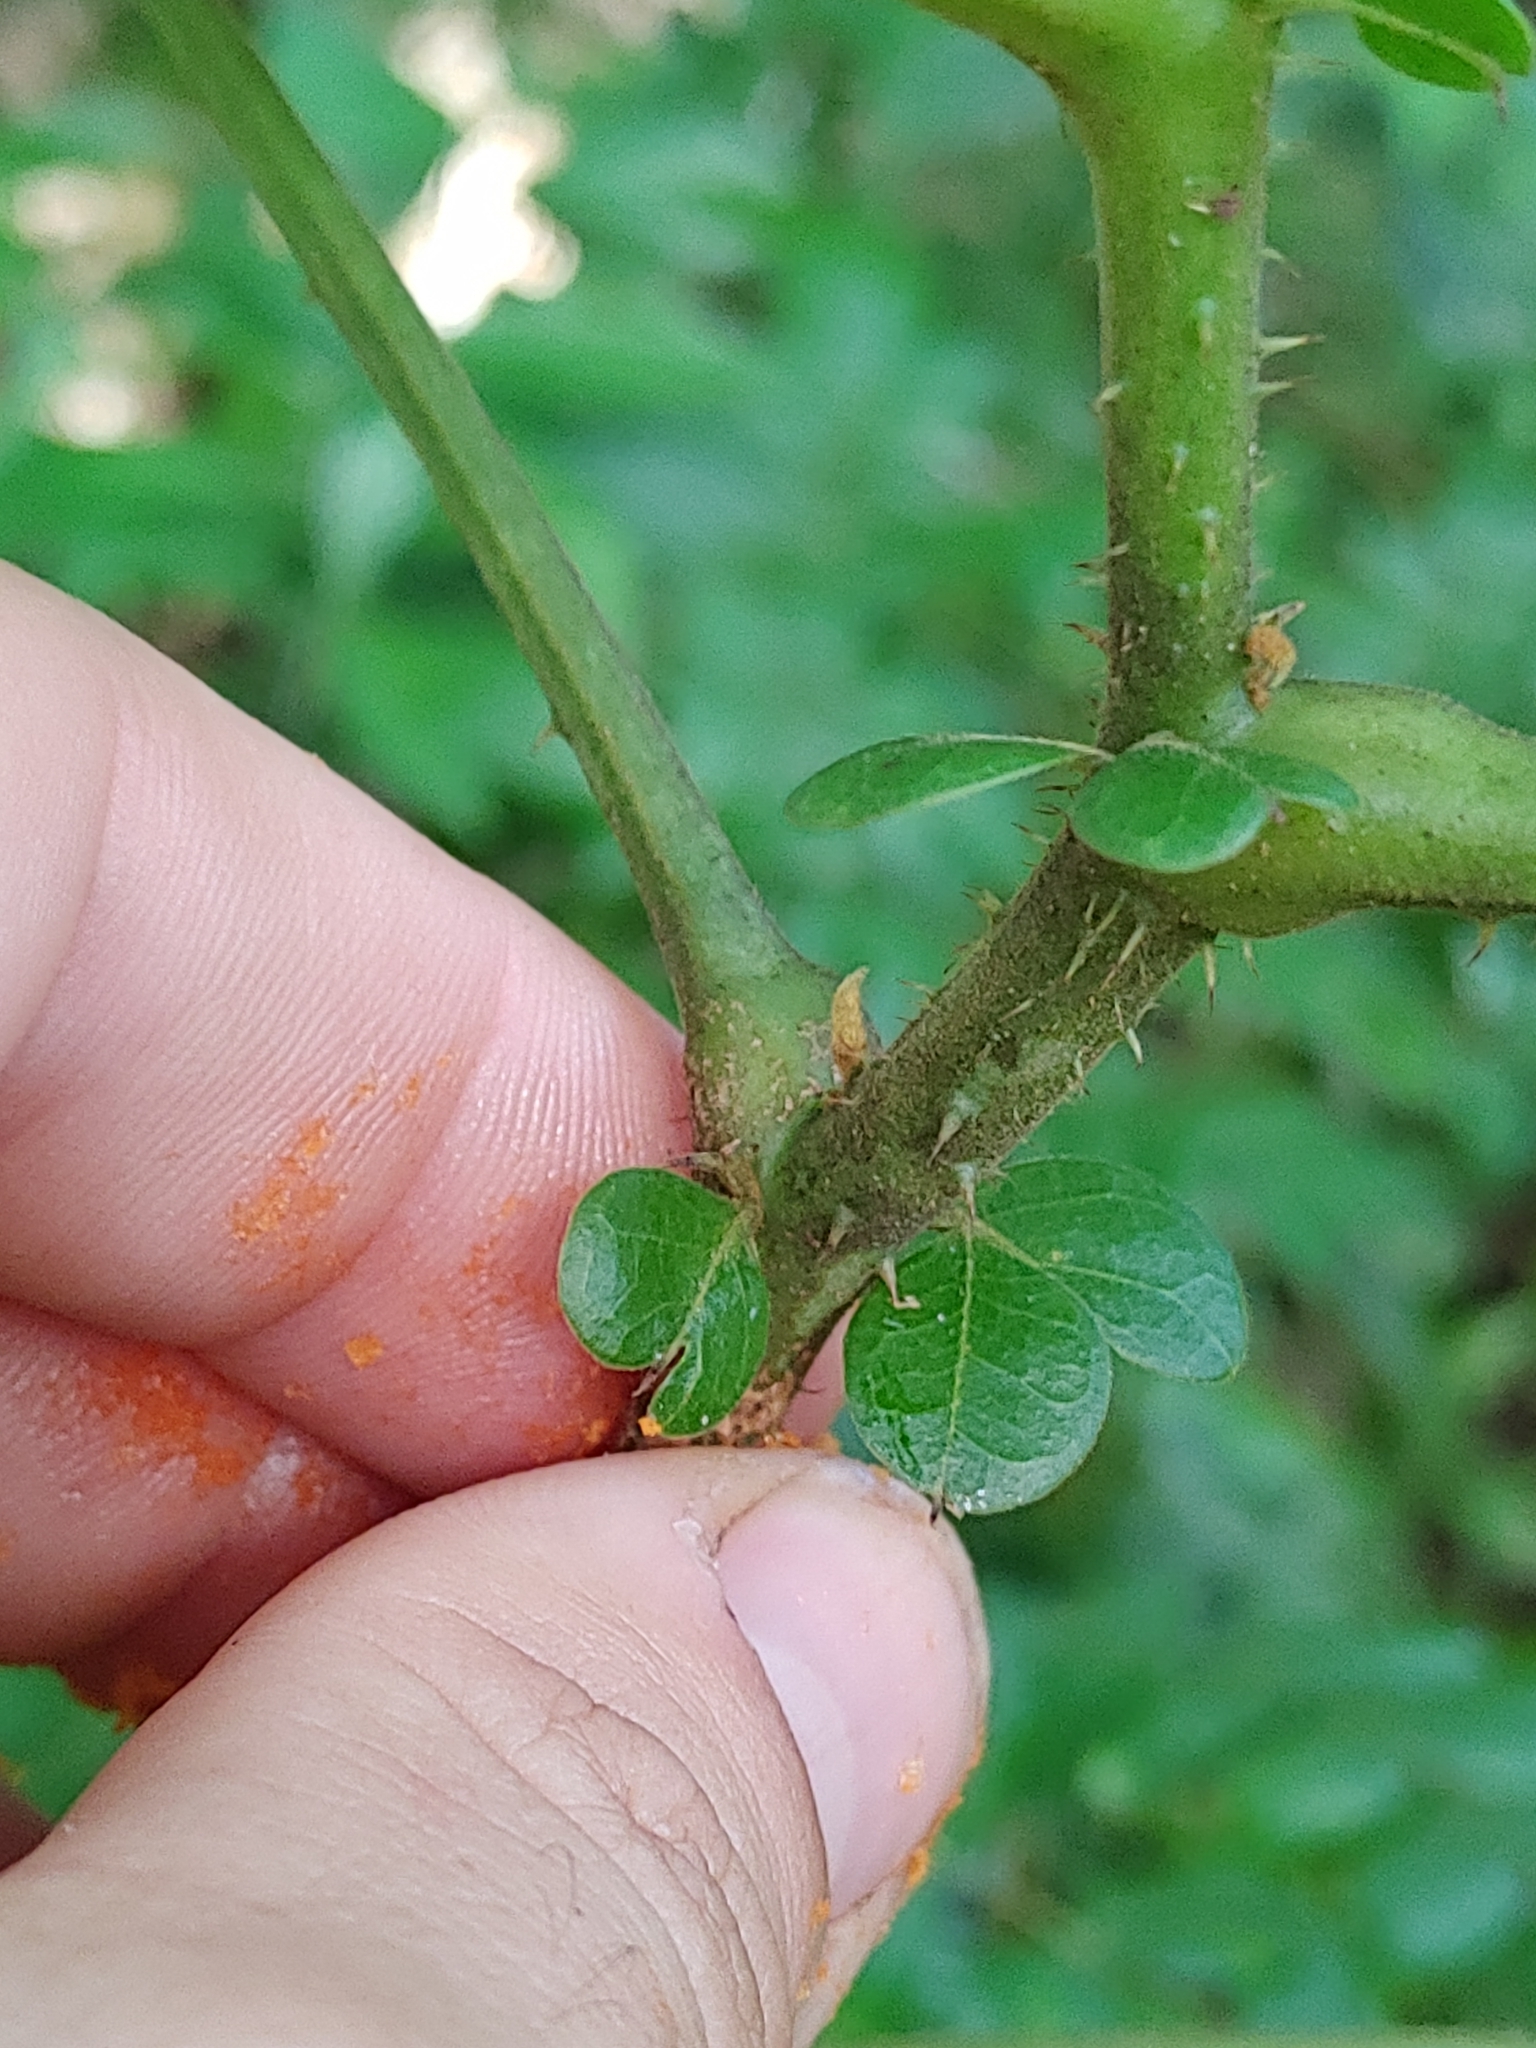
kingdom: Plantae
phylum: Tracheophyta
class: Magnoliopsida
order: Fabales
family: Fabaceae
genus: Guilandina
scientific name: Guilandina bonduc
